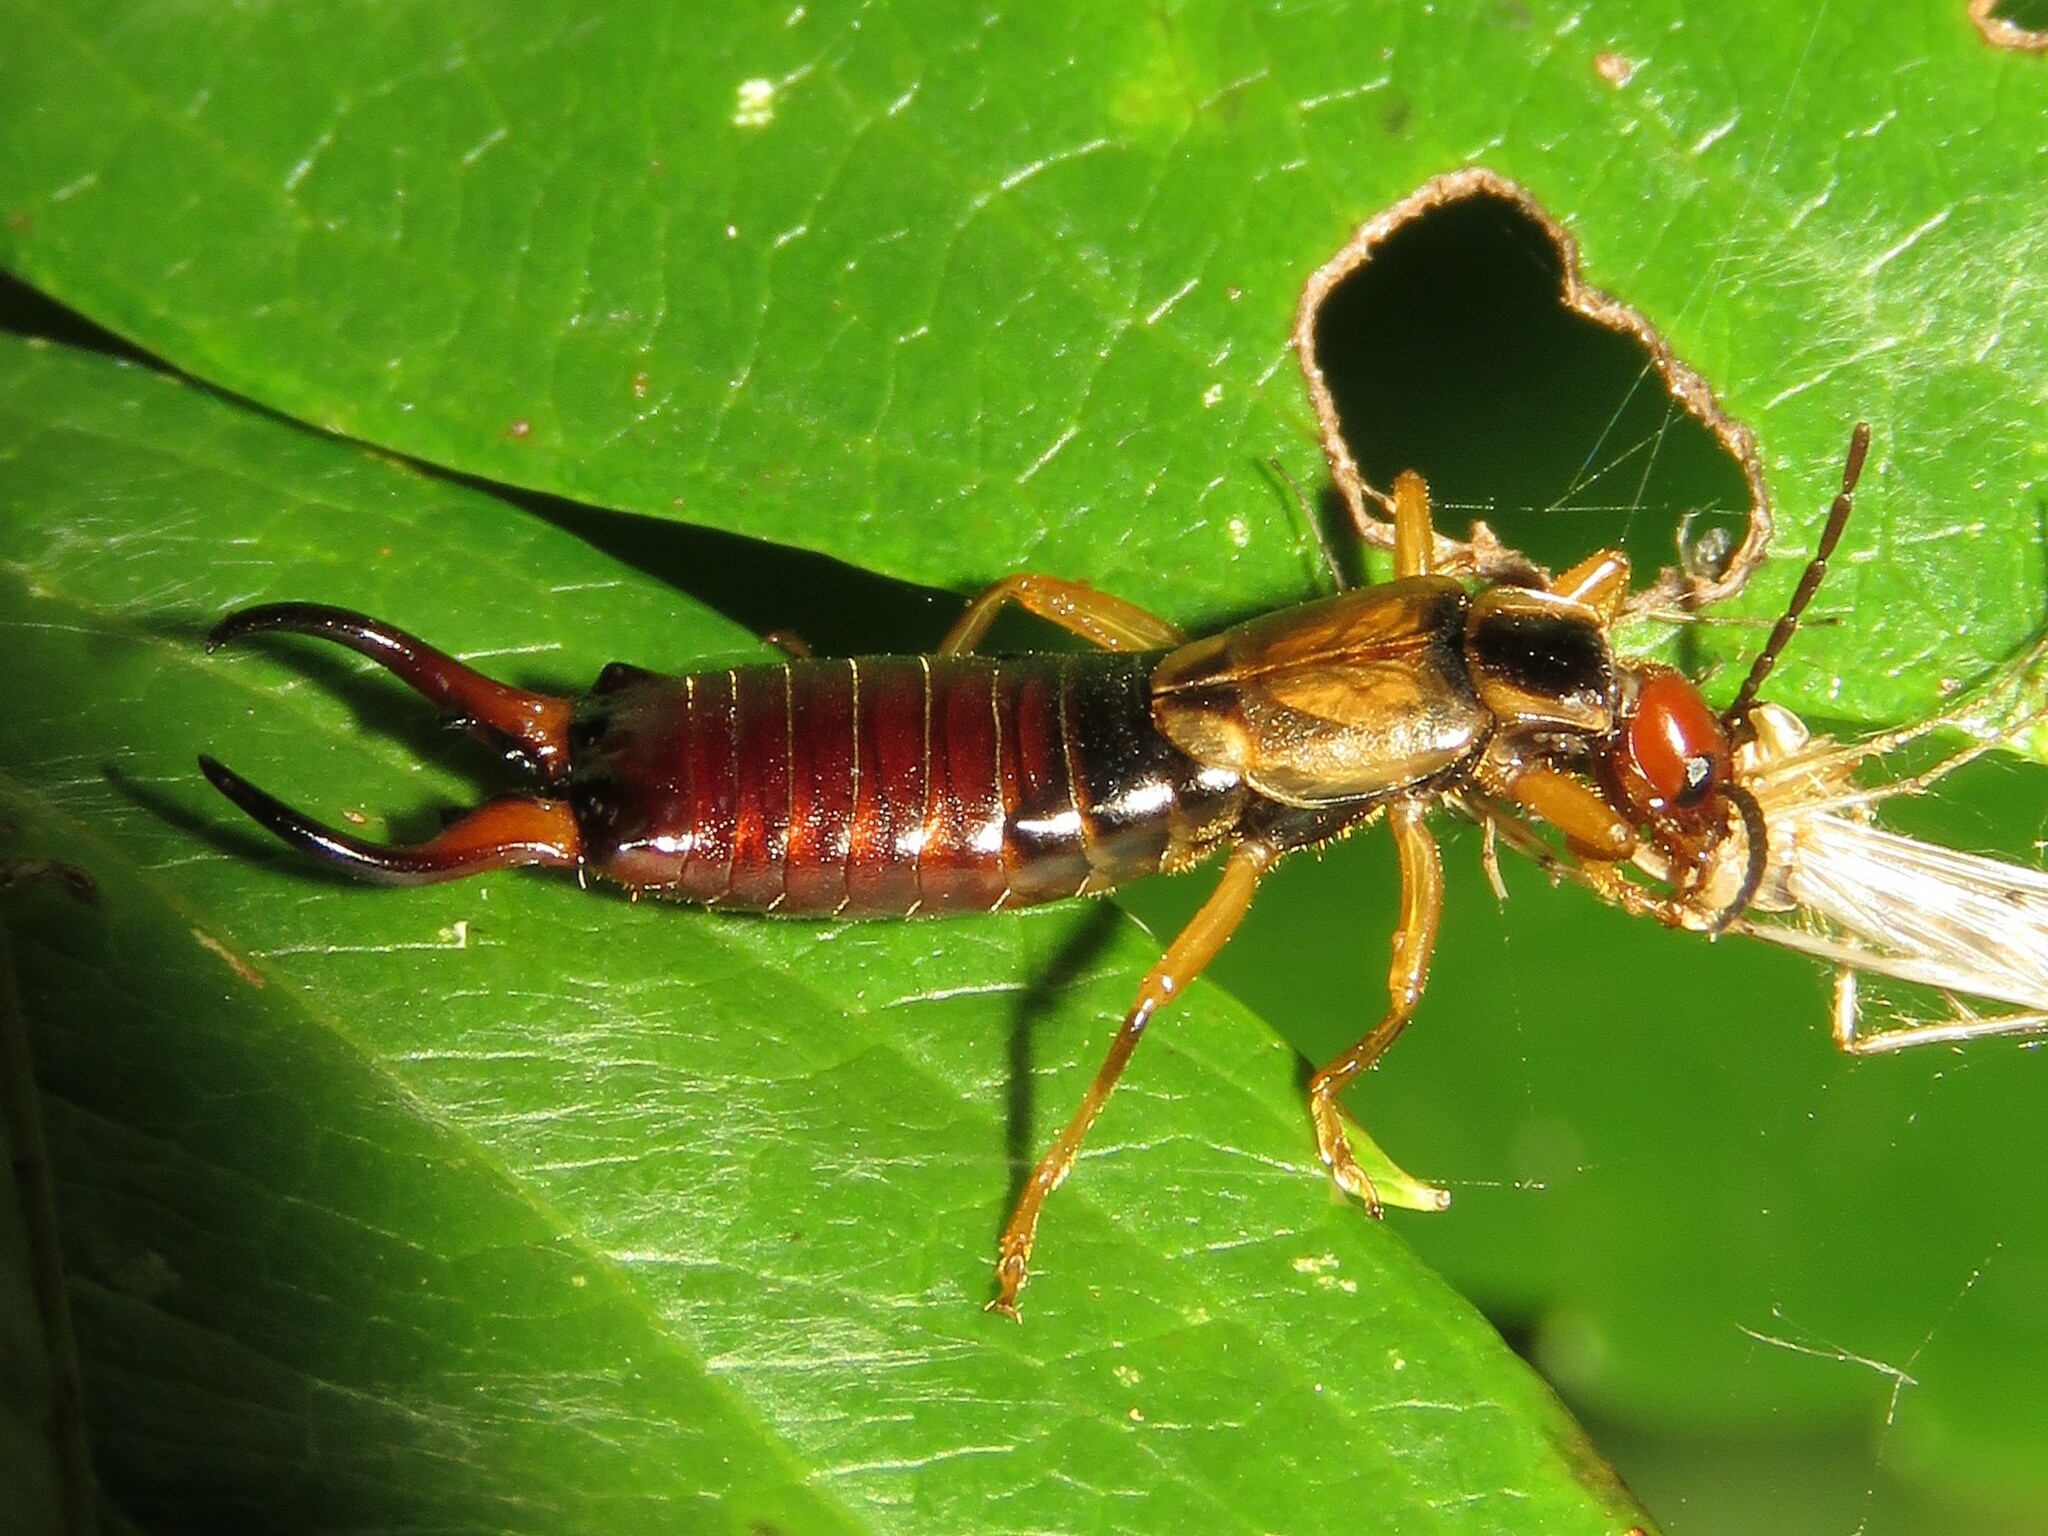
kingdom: Animalia
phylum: Arthropoda
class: Insecta
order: Dermaptera
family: Forficulidae
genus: Forficula
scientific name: Forficula
